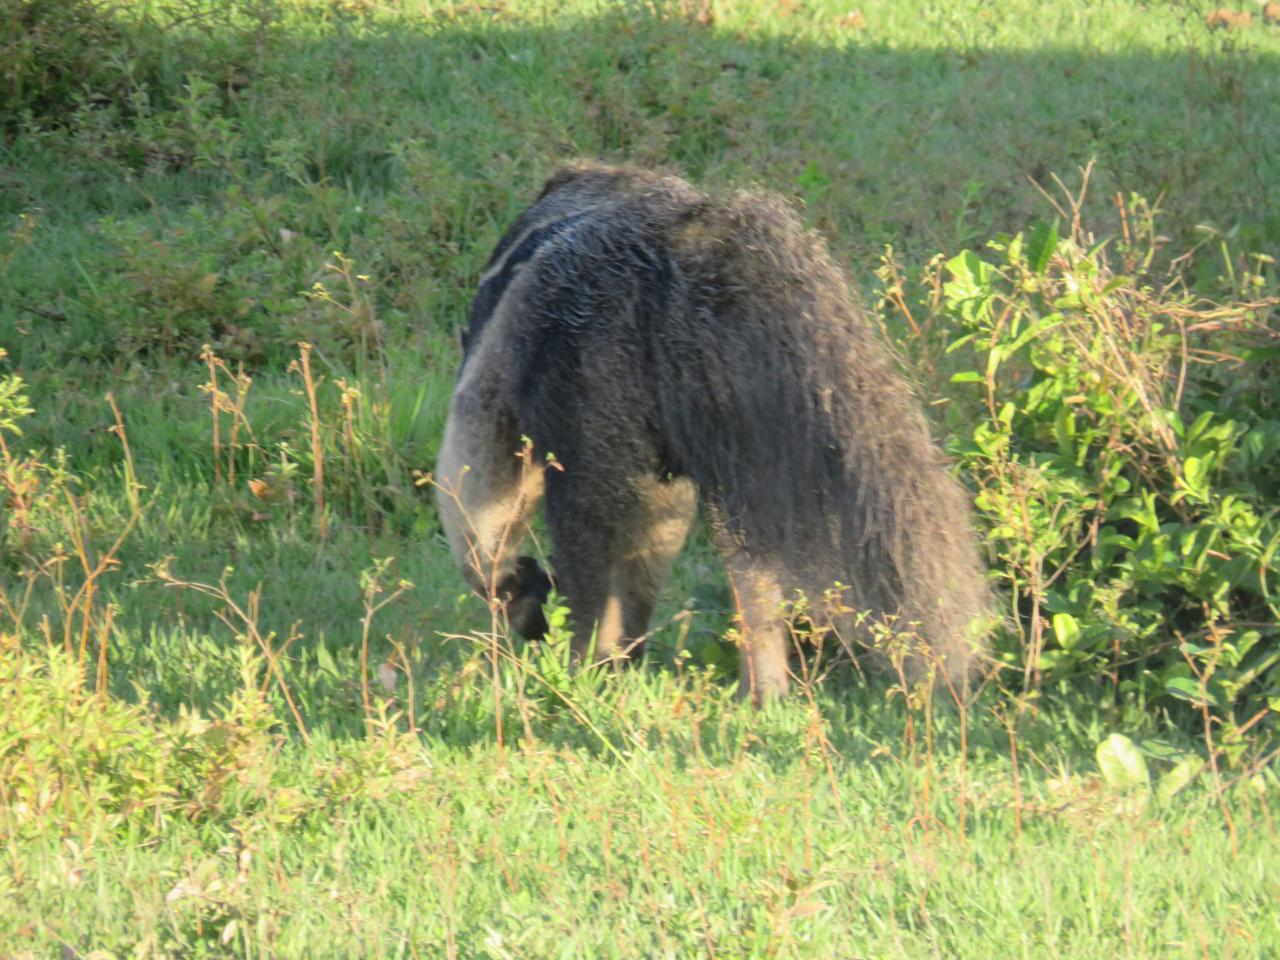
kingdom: Animalia
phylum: Chordata
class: Mammalia
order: Pilosa
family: Myrmecophagidae
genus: Myrmecophaga
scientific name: Myrmecophaga tridactyla
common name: Giant anteater
